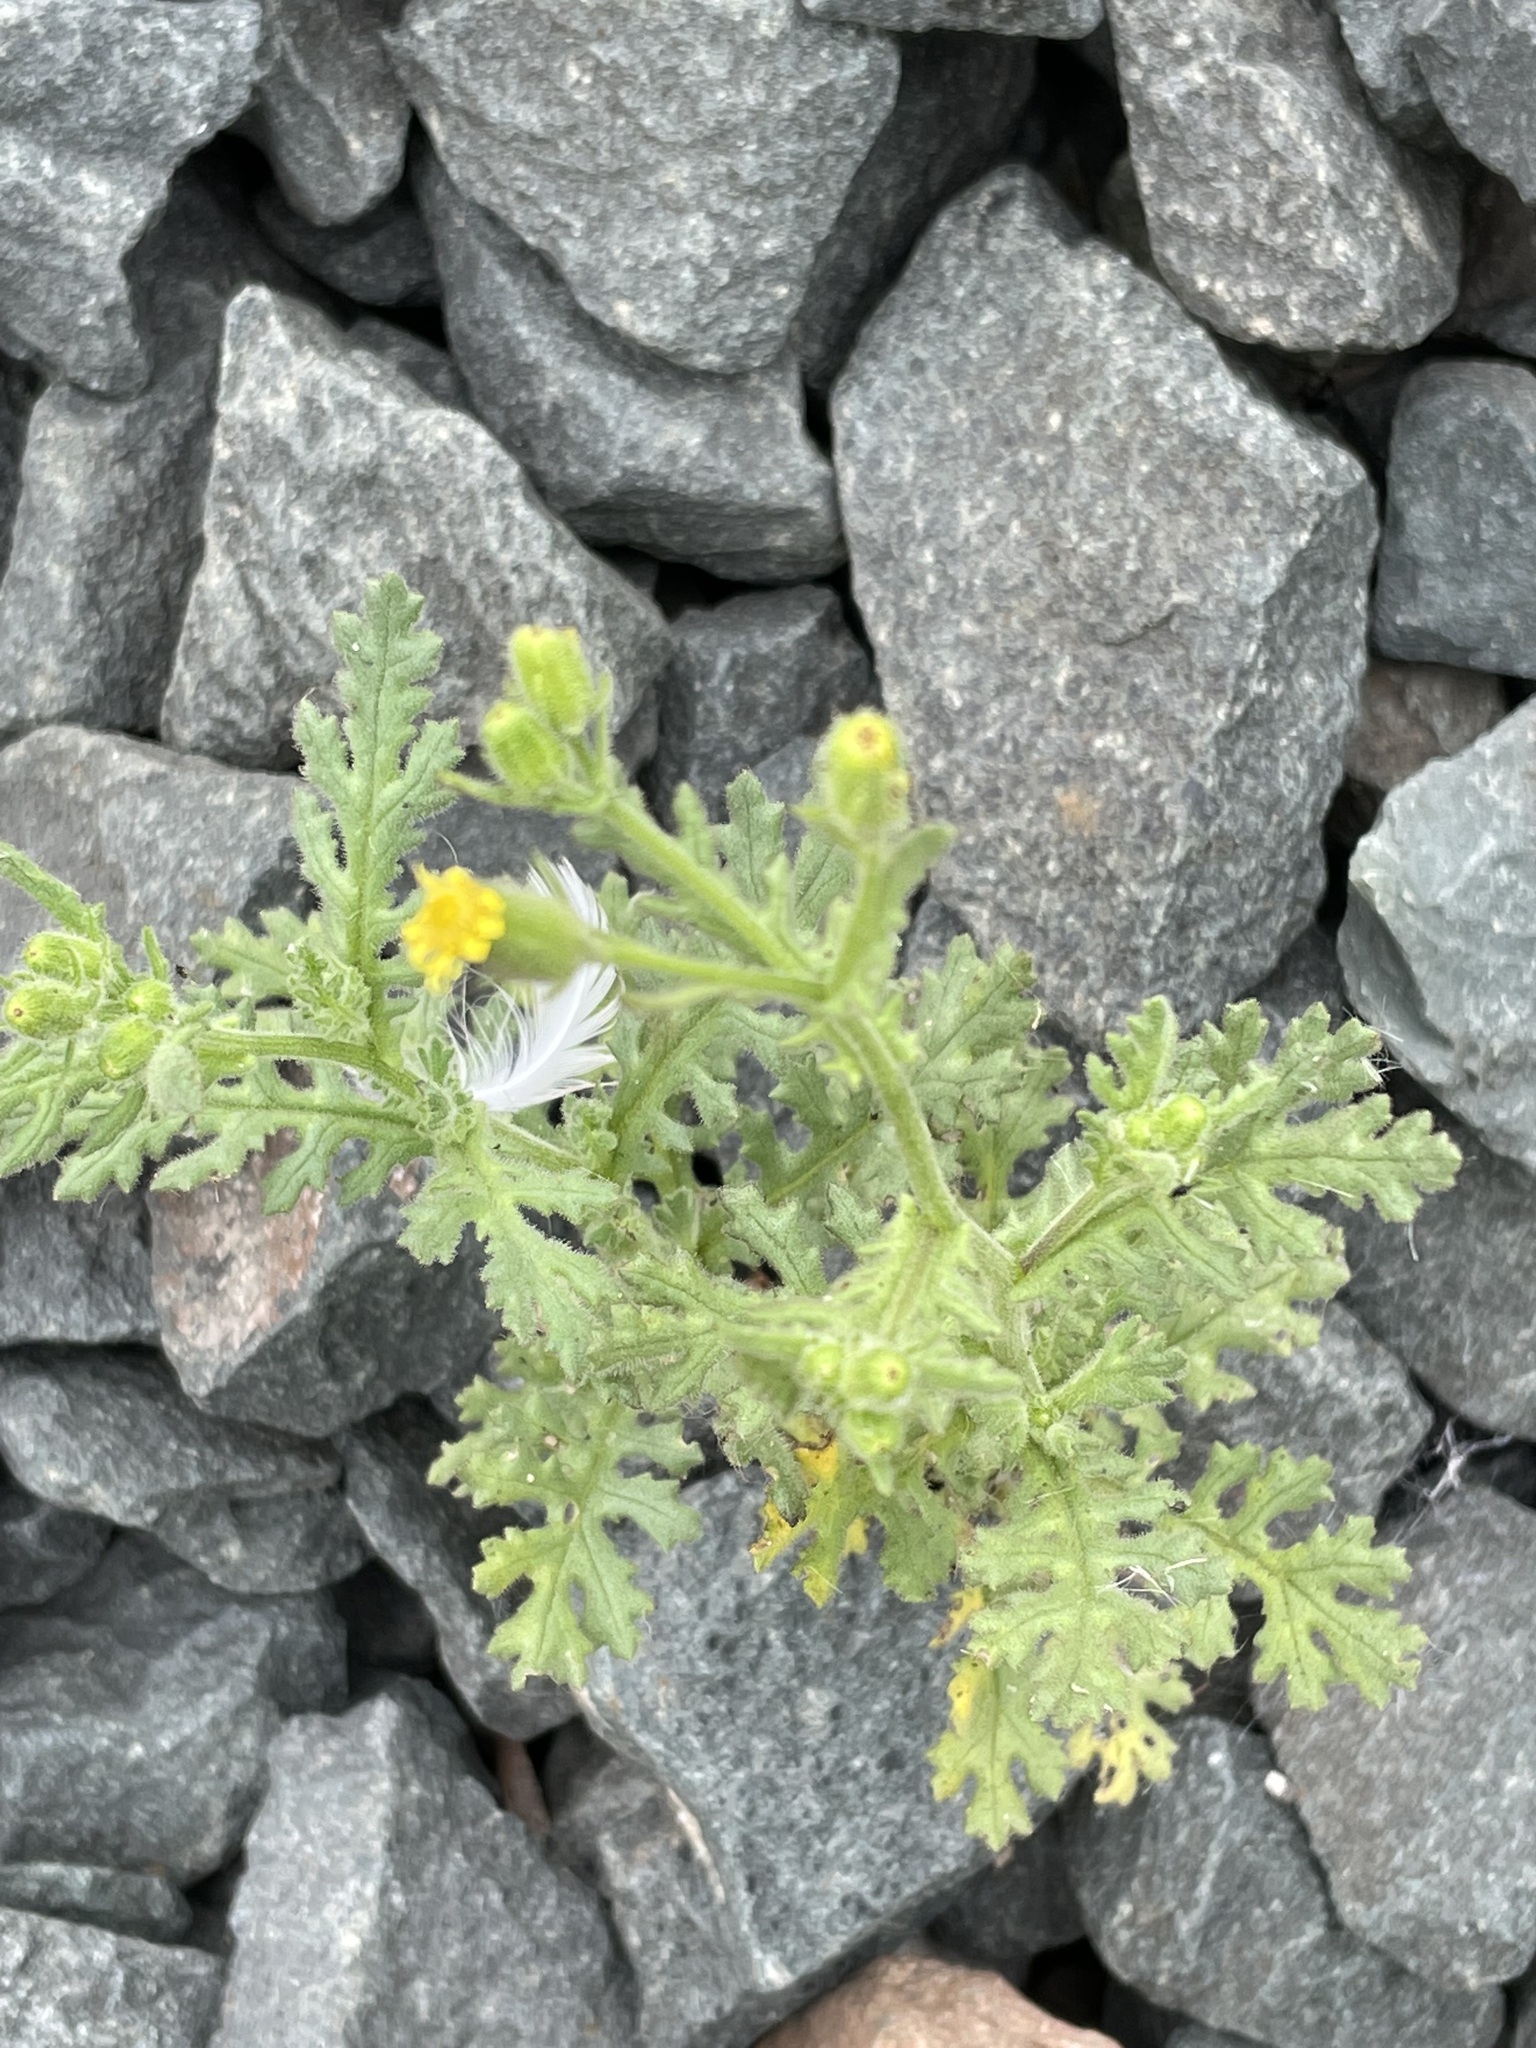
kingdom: Plantae
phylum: Tracheophyta
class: Magnoliopsida
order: Asterales
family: Asteraceae
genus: Senecio
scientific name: Senecio viscosus
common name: Sticky groundsel
